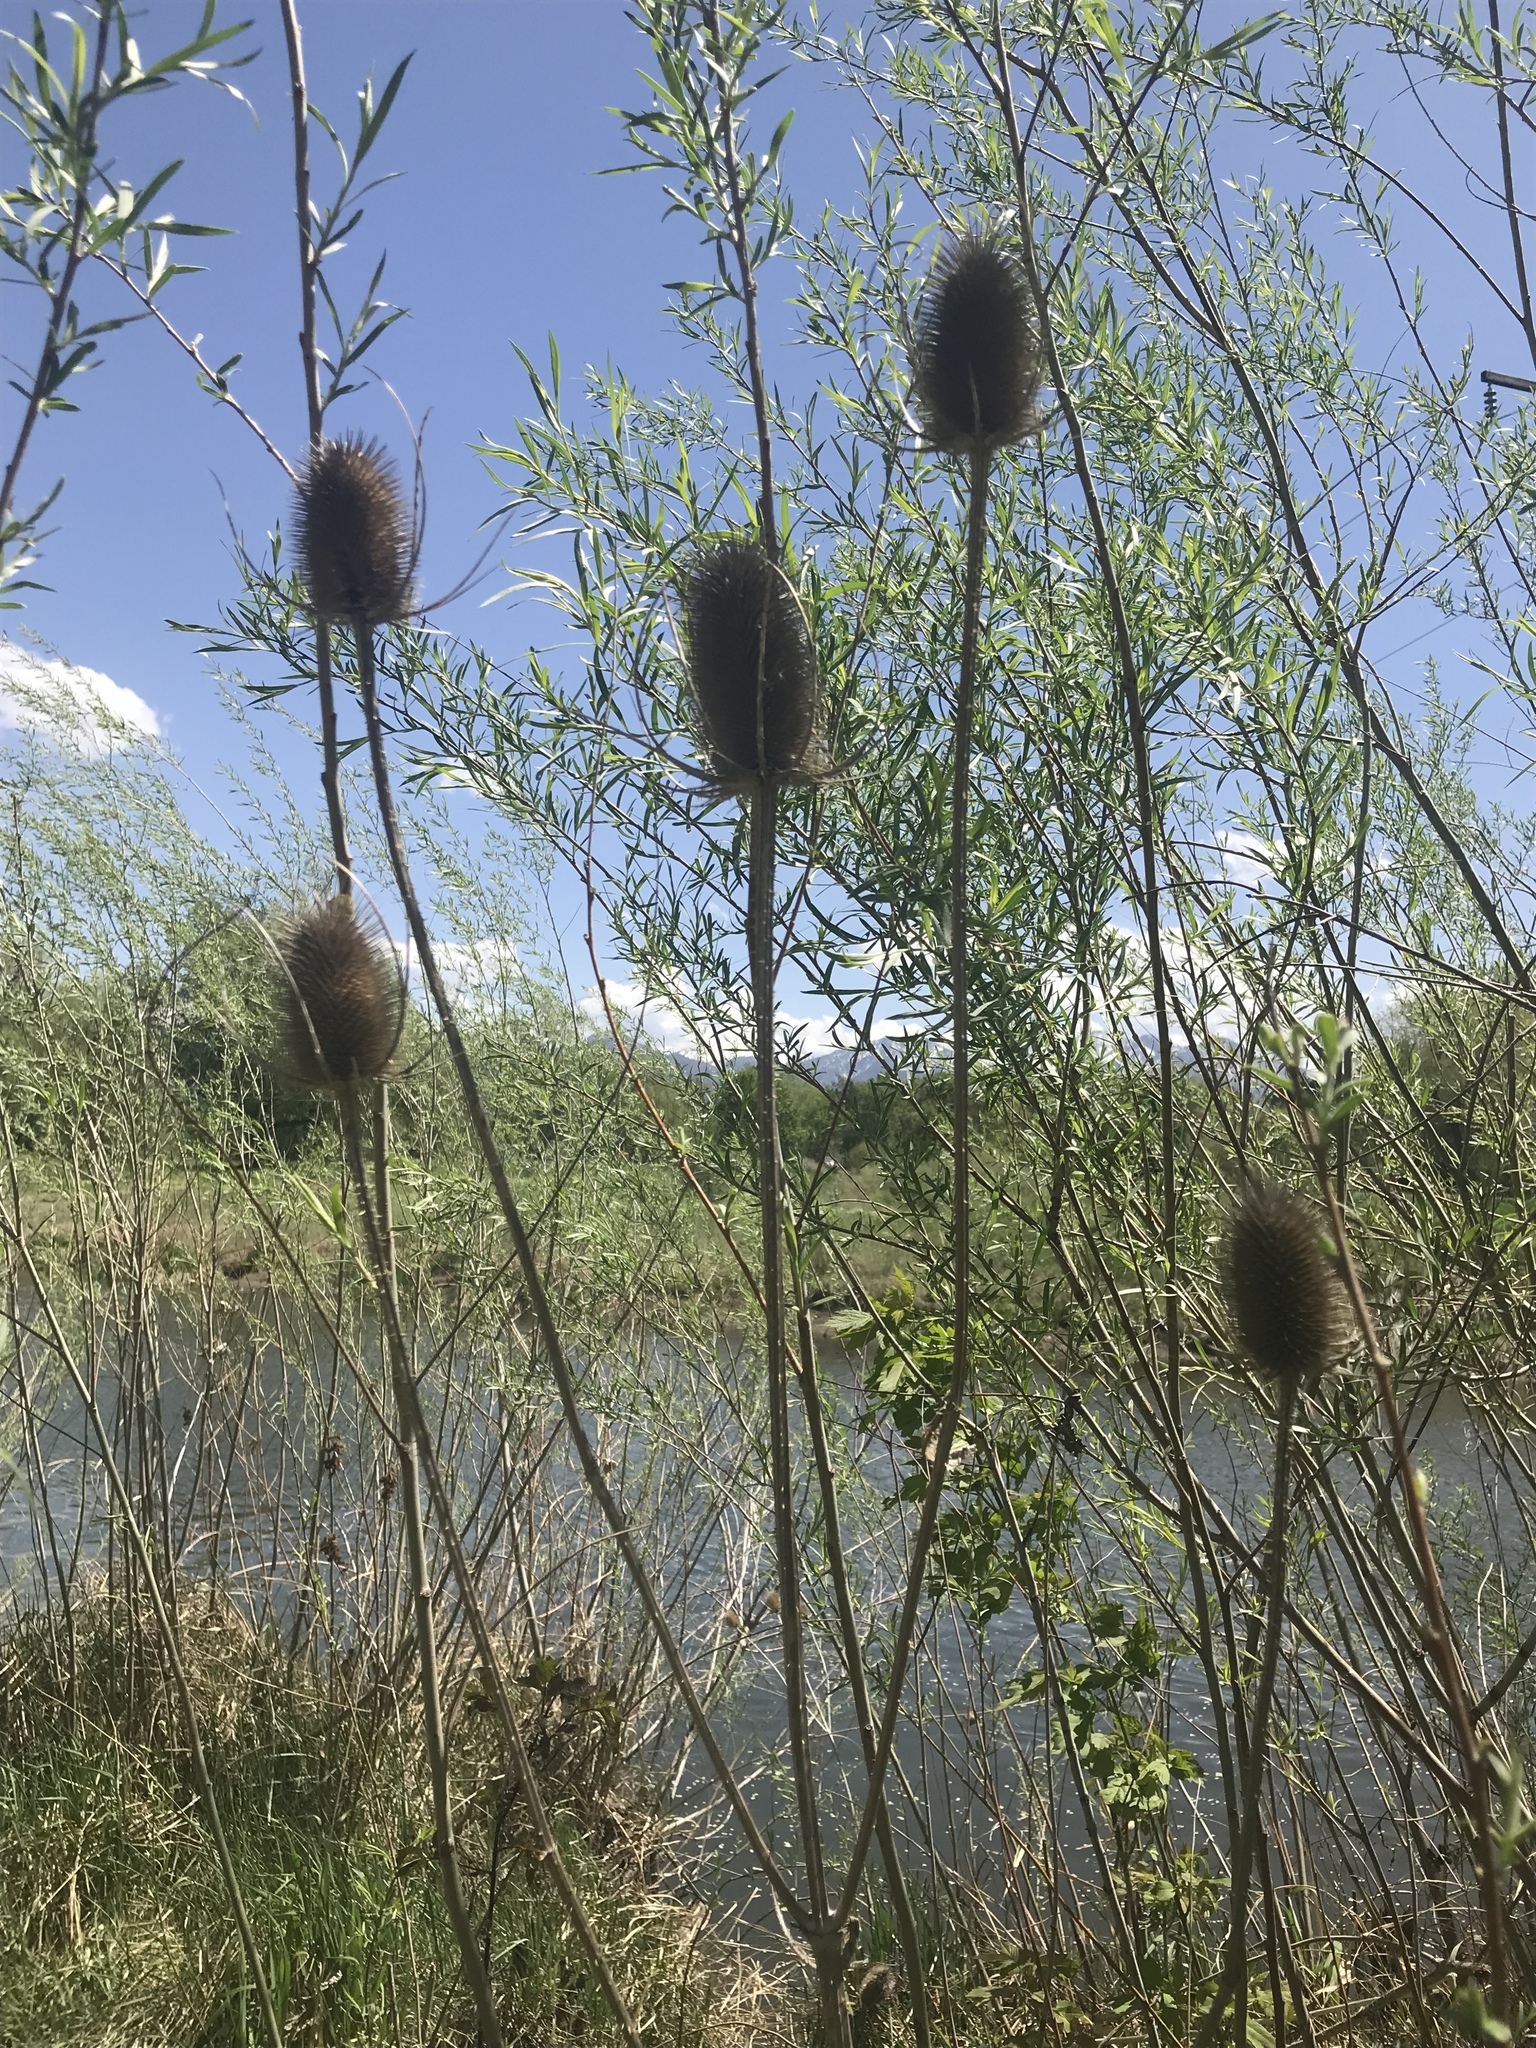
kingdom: Plantae
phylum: Tracheophyta
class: Magnoliopsida
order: Dipsacales
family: Caprifoliaceae
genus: Dipsacus
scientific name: Dipsacus fullonum
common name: Teasel
